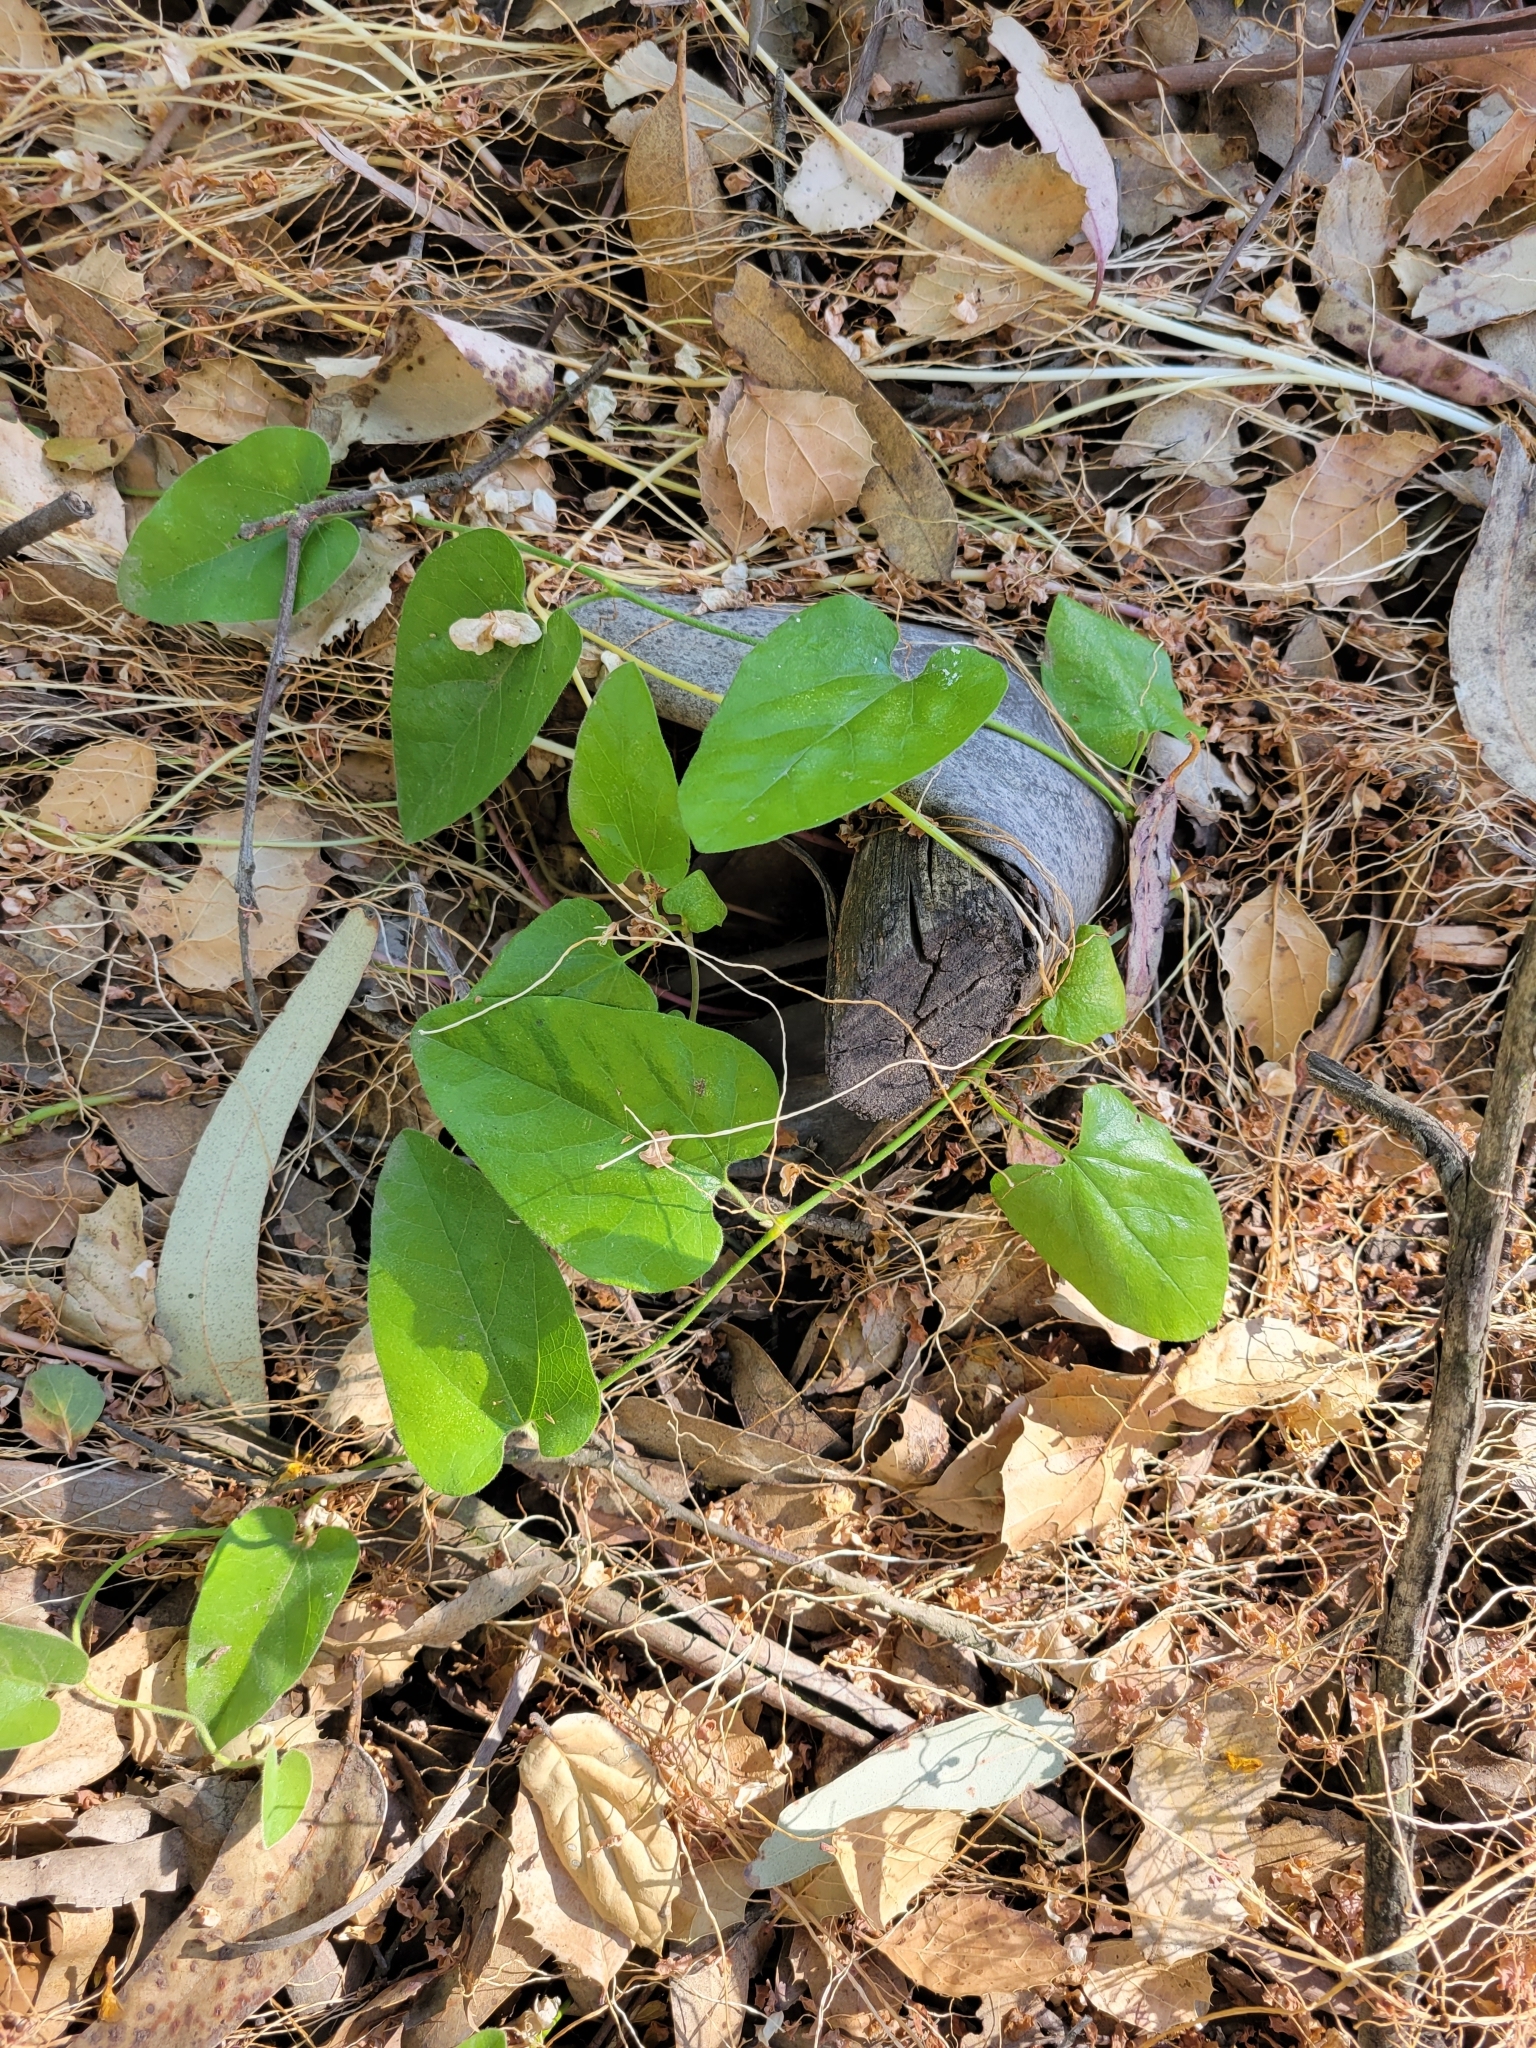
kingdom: Plantae
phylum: Tracheophyta
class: Magnoliopsida
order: Piperales
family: Aristolochiaceae
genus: Isotrema
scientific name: Isotrema californicum
